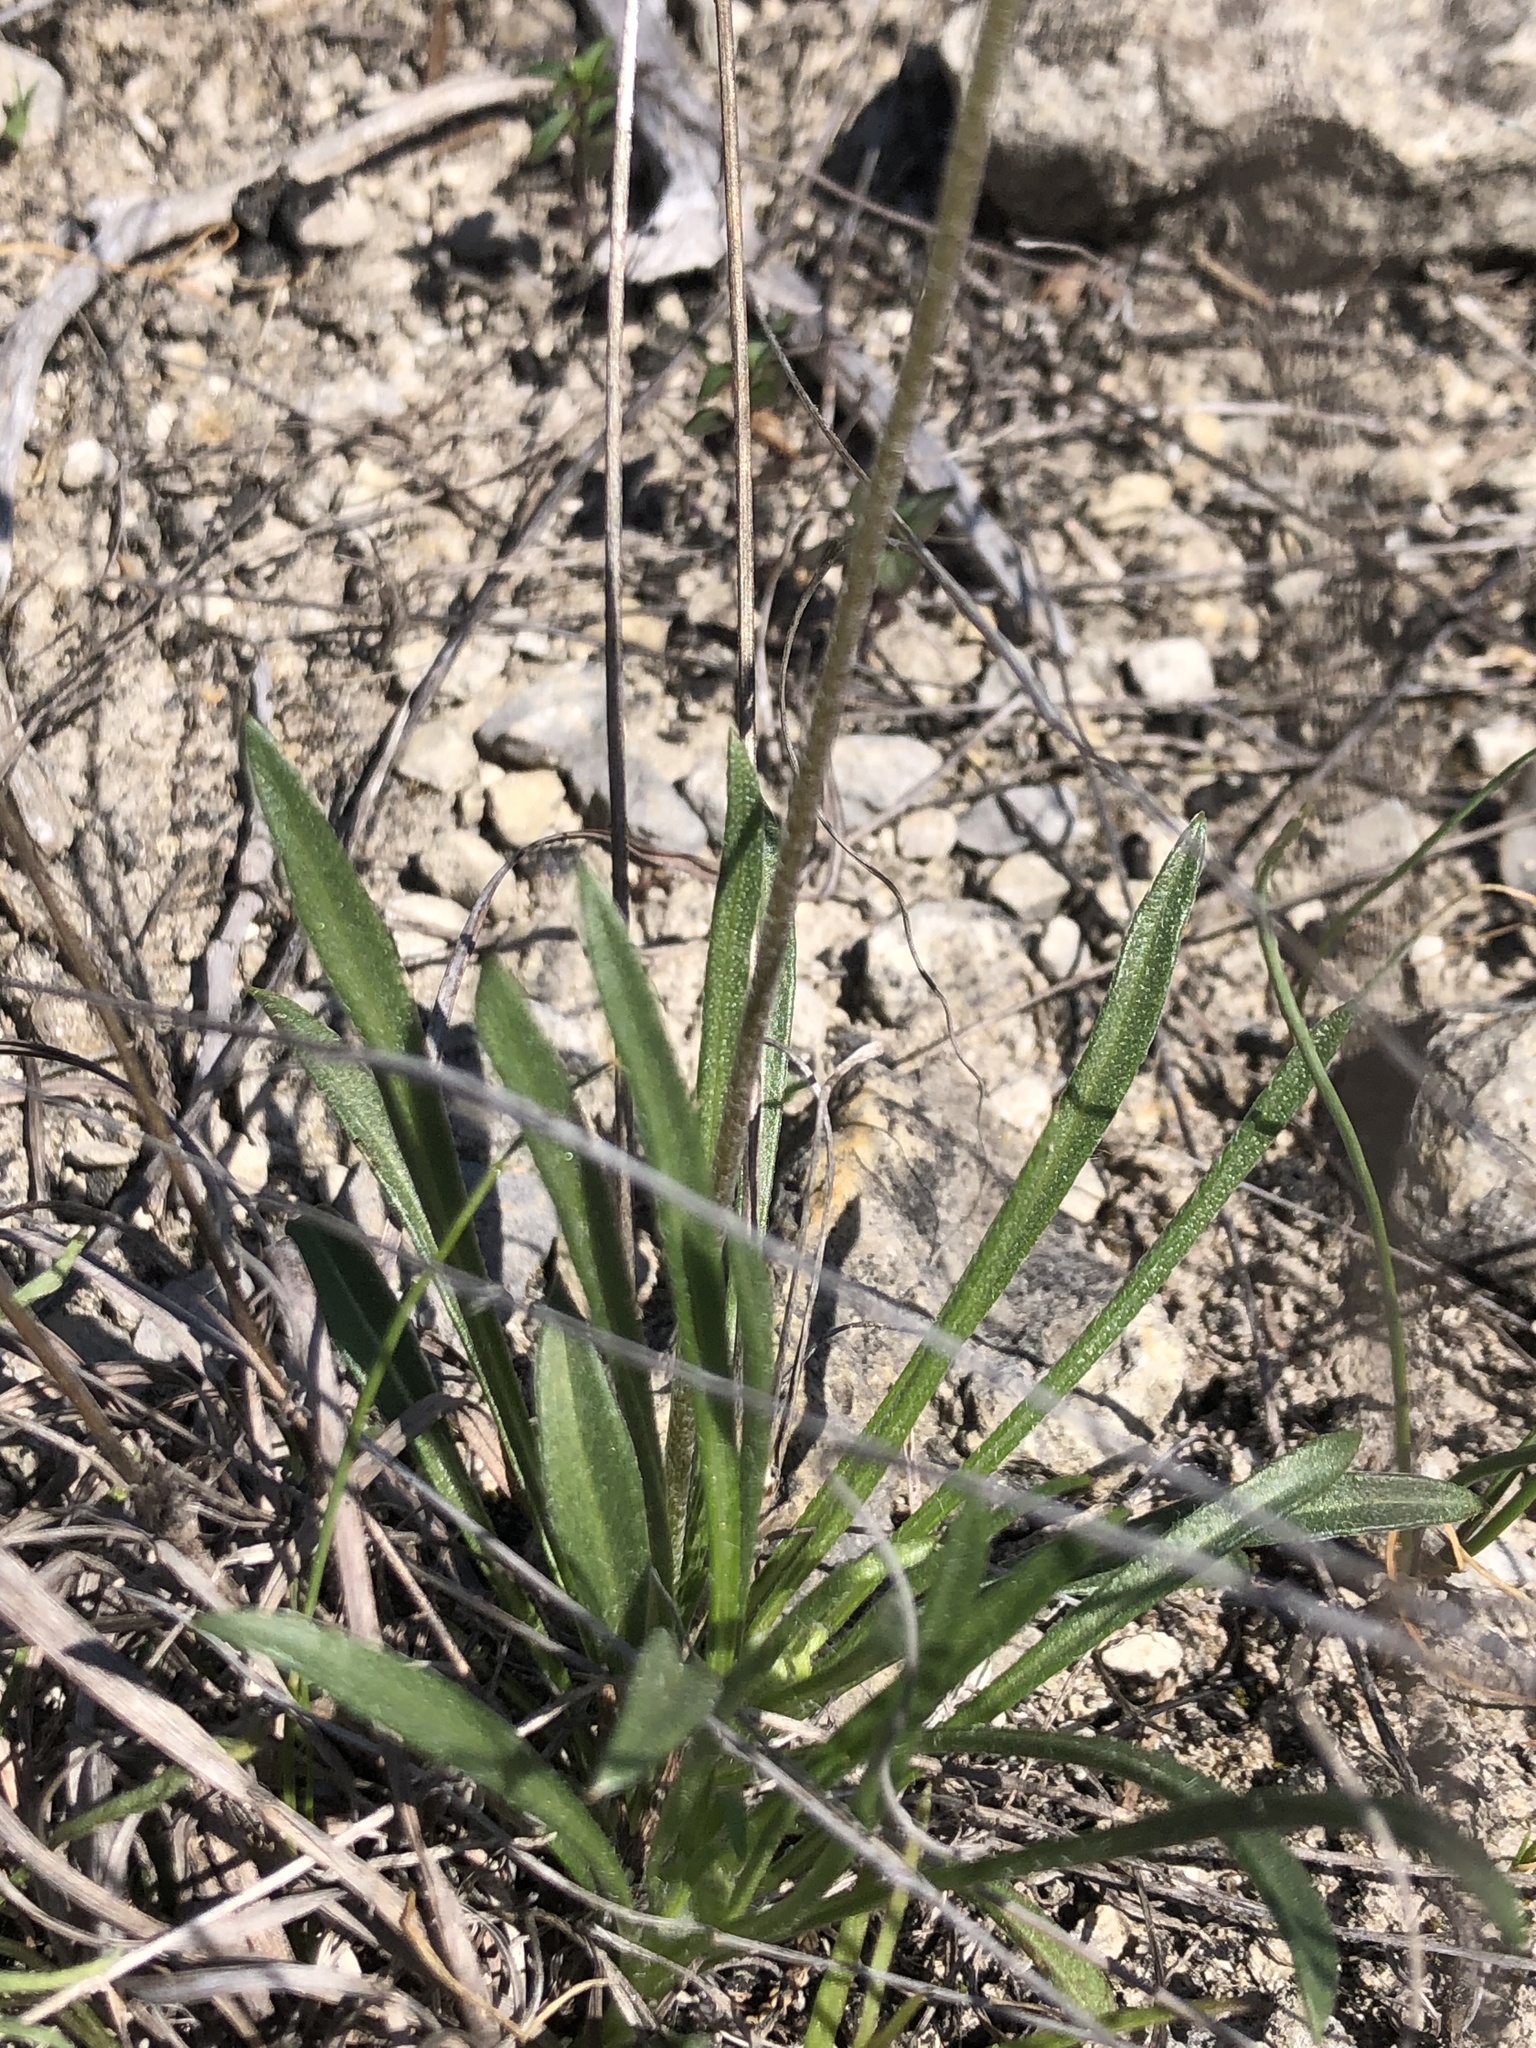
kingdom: Plantae
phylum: Tracheophyta
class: Magnoliopsida
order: Asterales
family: Asteraceae
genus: Tetraneuris
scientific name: Tetraneuris scaposa
